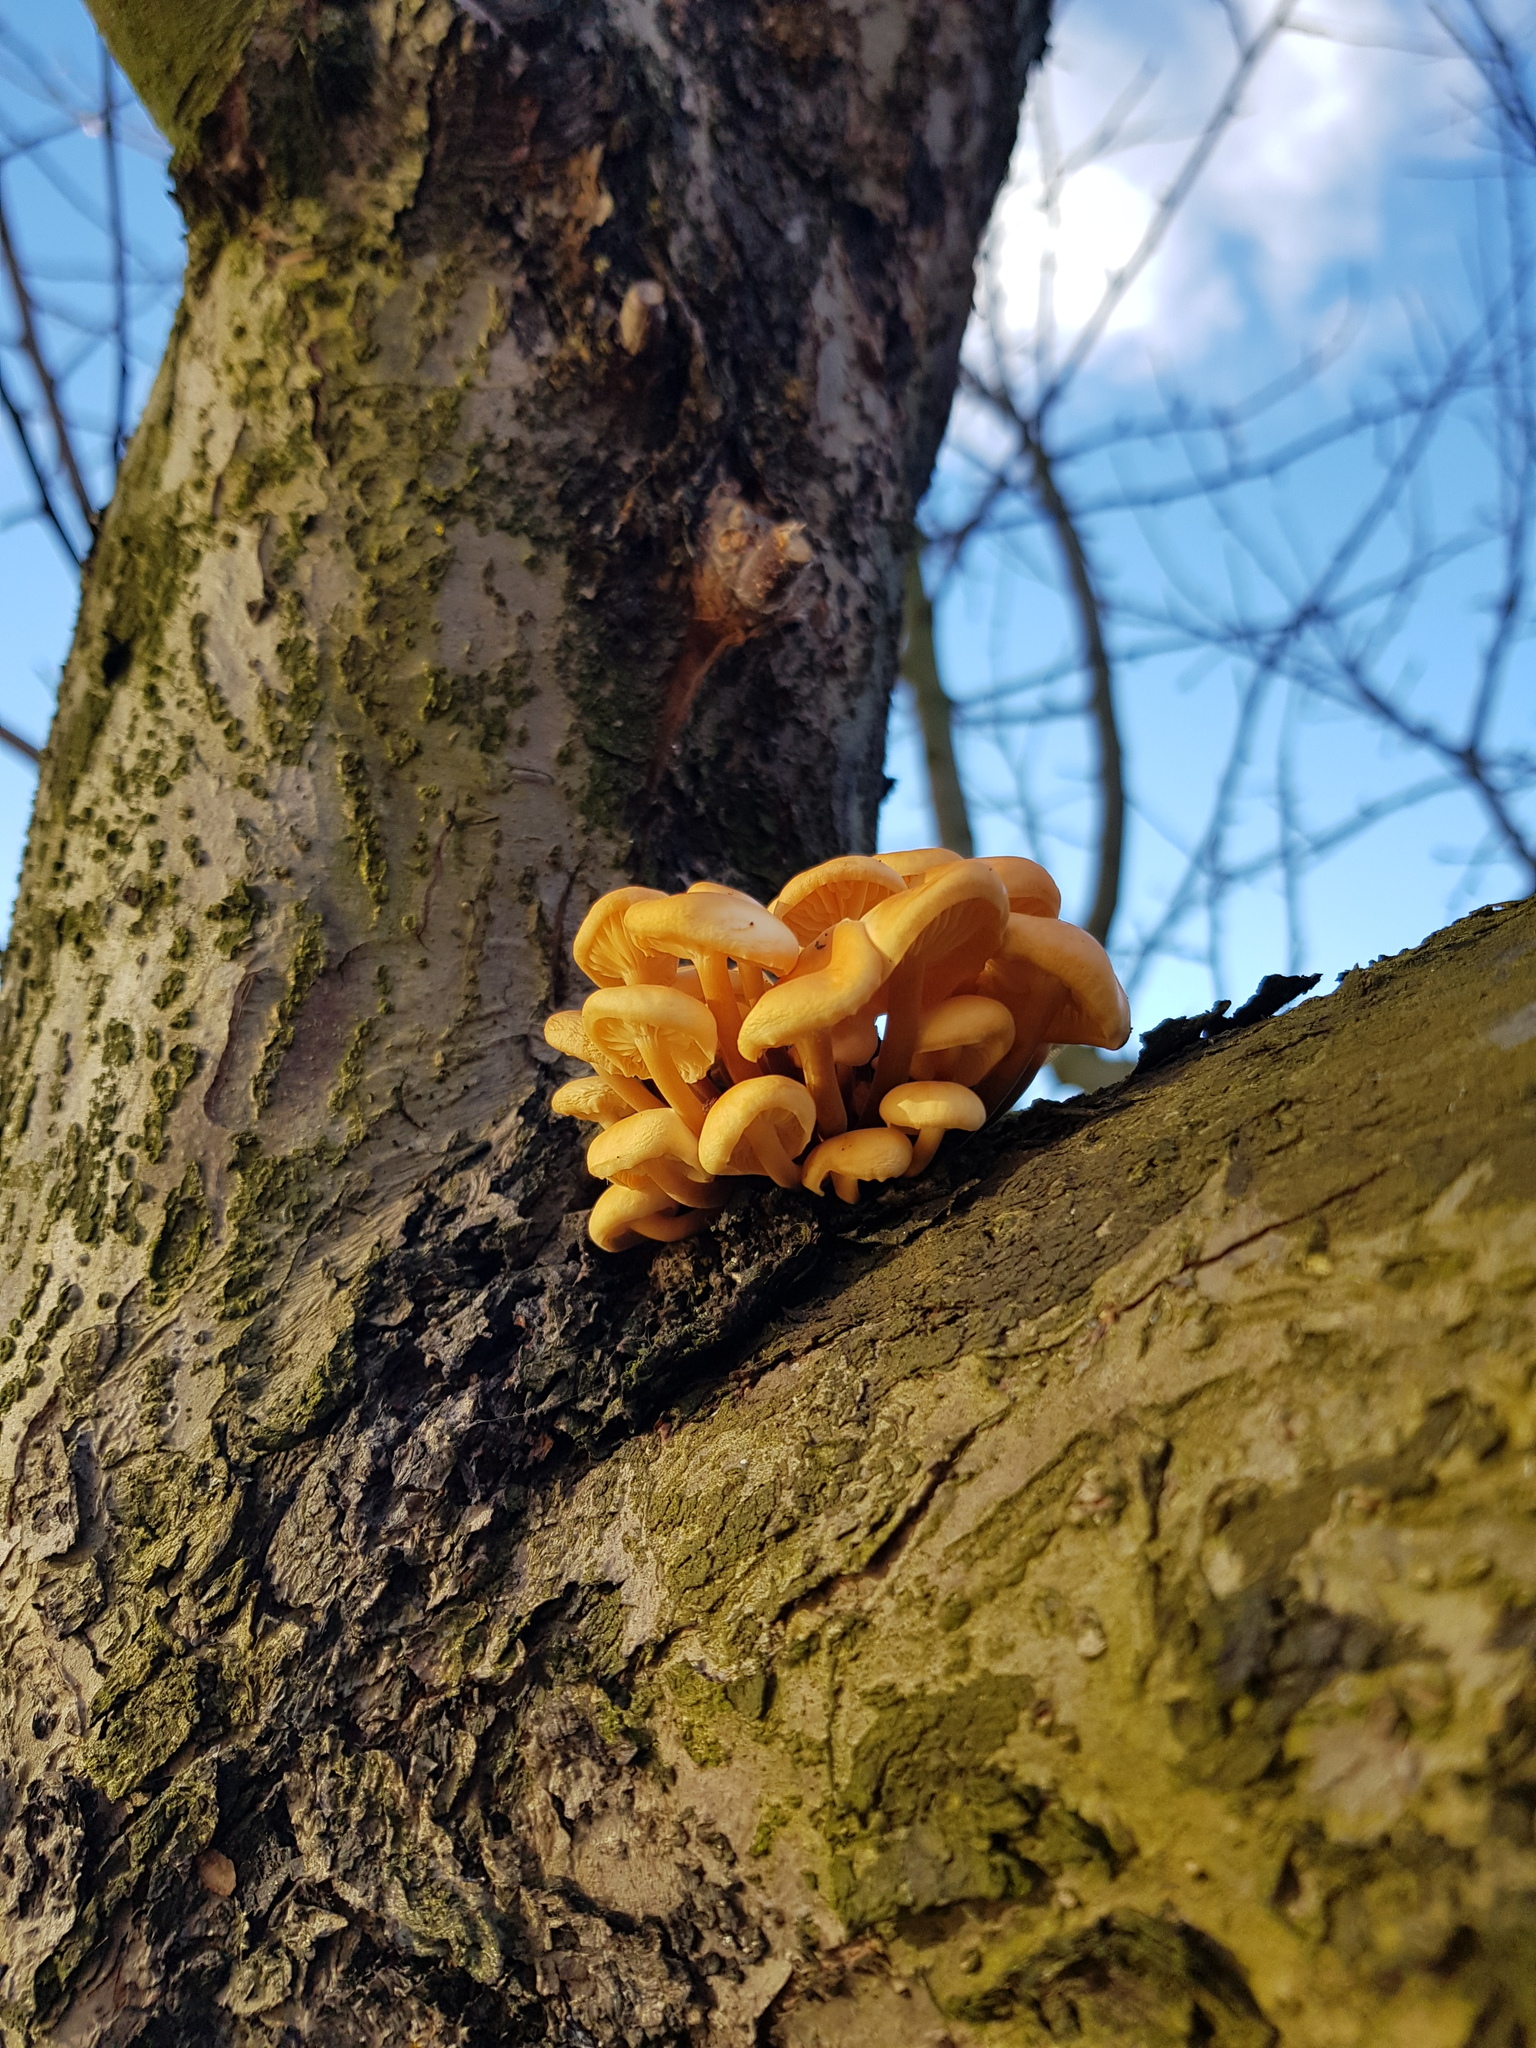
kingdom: Fungi
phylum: Basidiomycota
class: Agaricomycetes
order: Agaricales
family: Physalacriaceae
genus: Flammulina
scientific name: Flammulina
